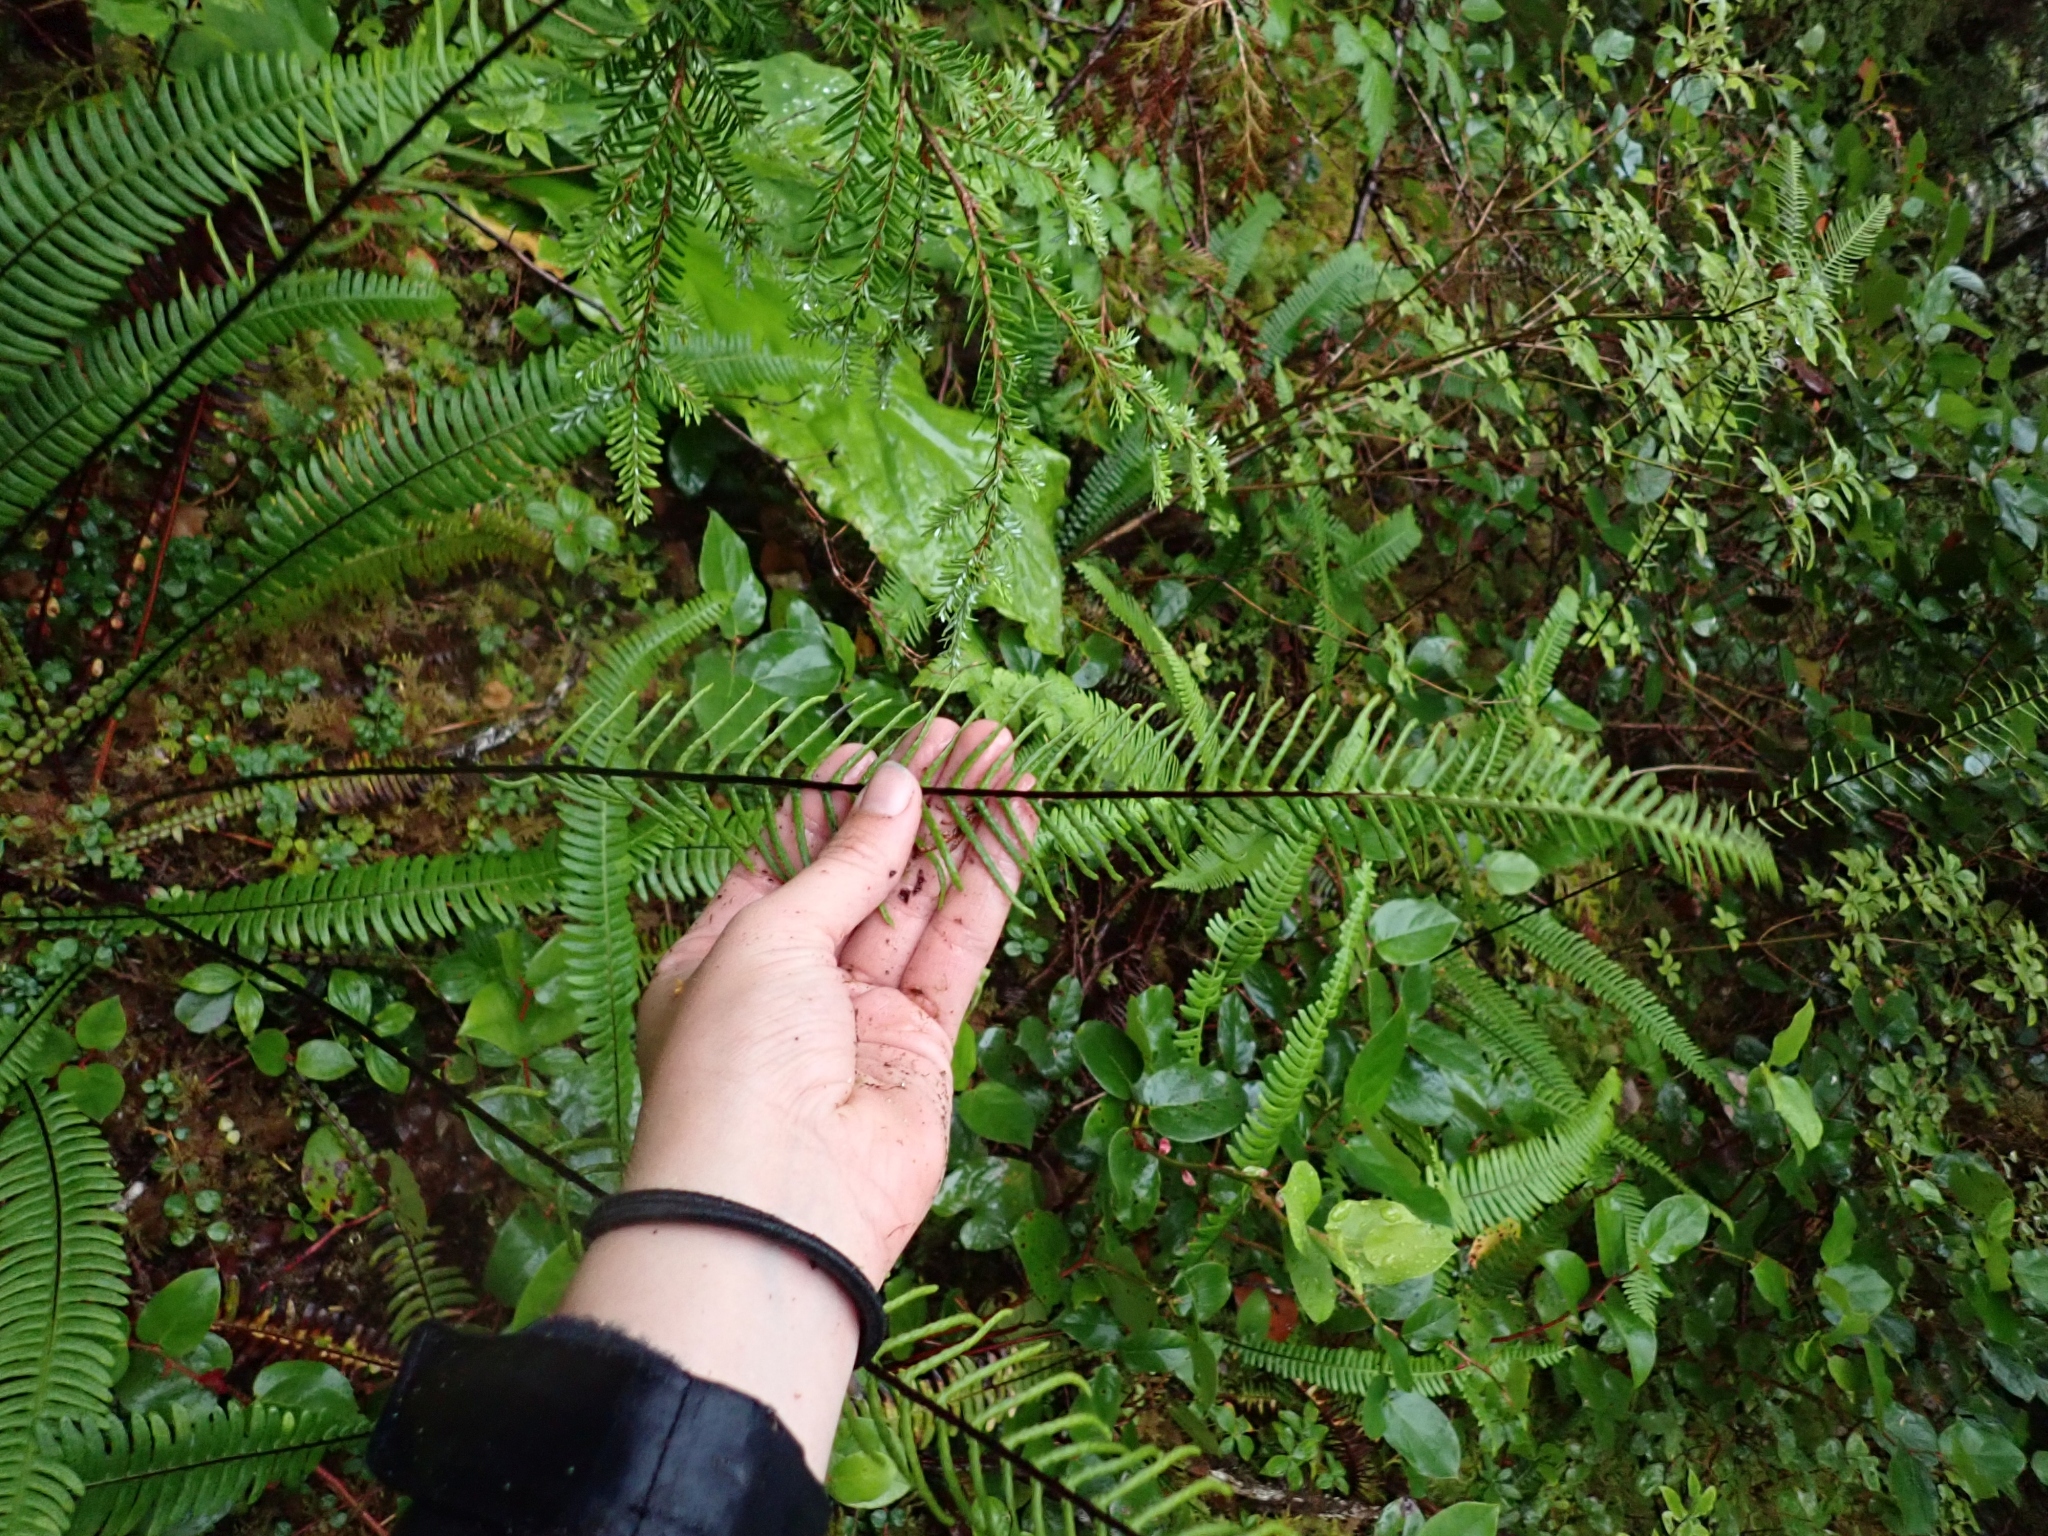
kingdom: Plantae
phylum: Tracheophyta
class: Polypodiopsida
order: Polypodiales
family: Blechnaceae
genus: Struthiopteris
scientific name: Struthiopteris spicant
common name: Deer fern
